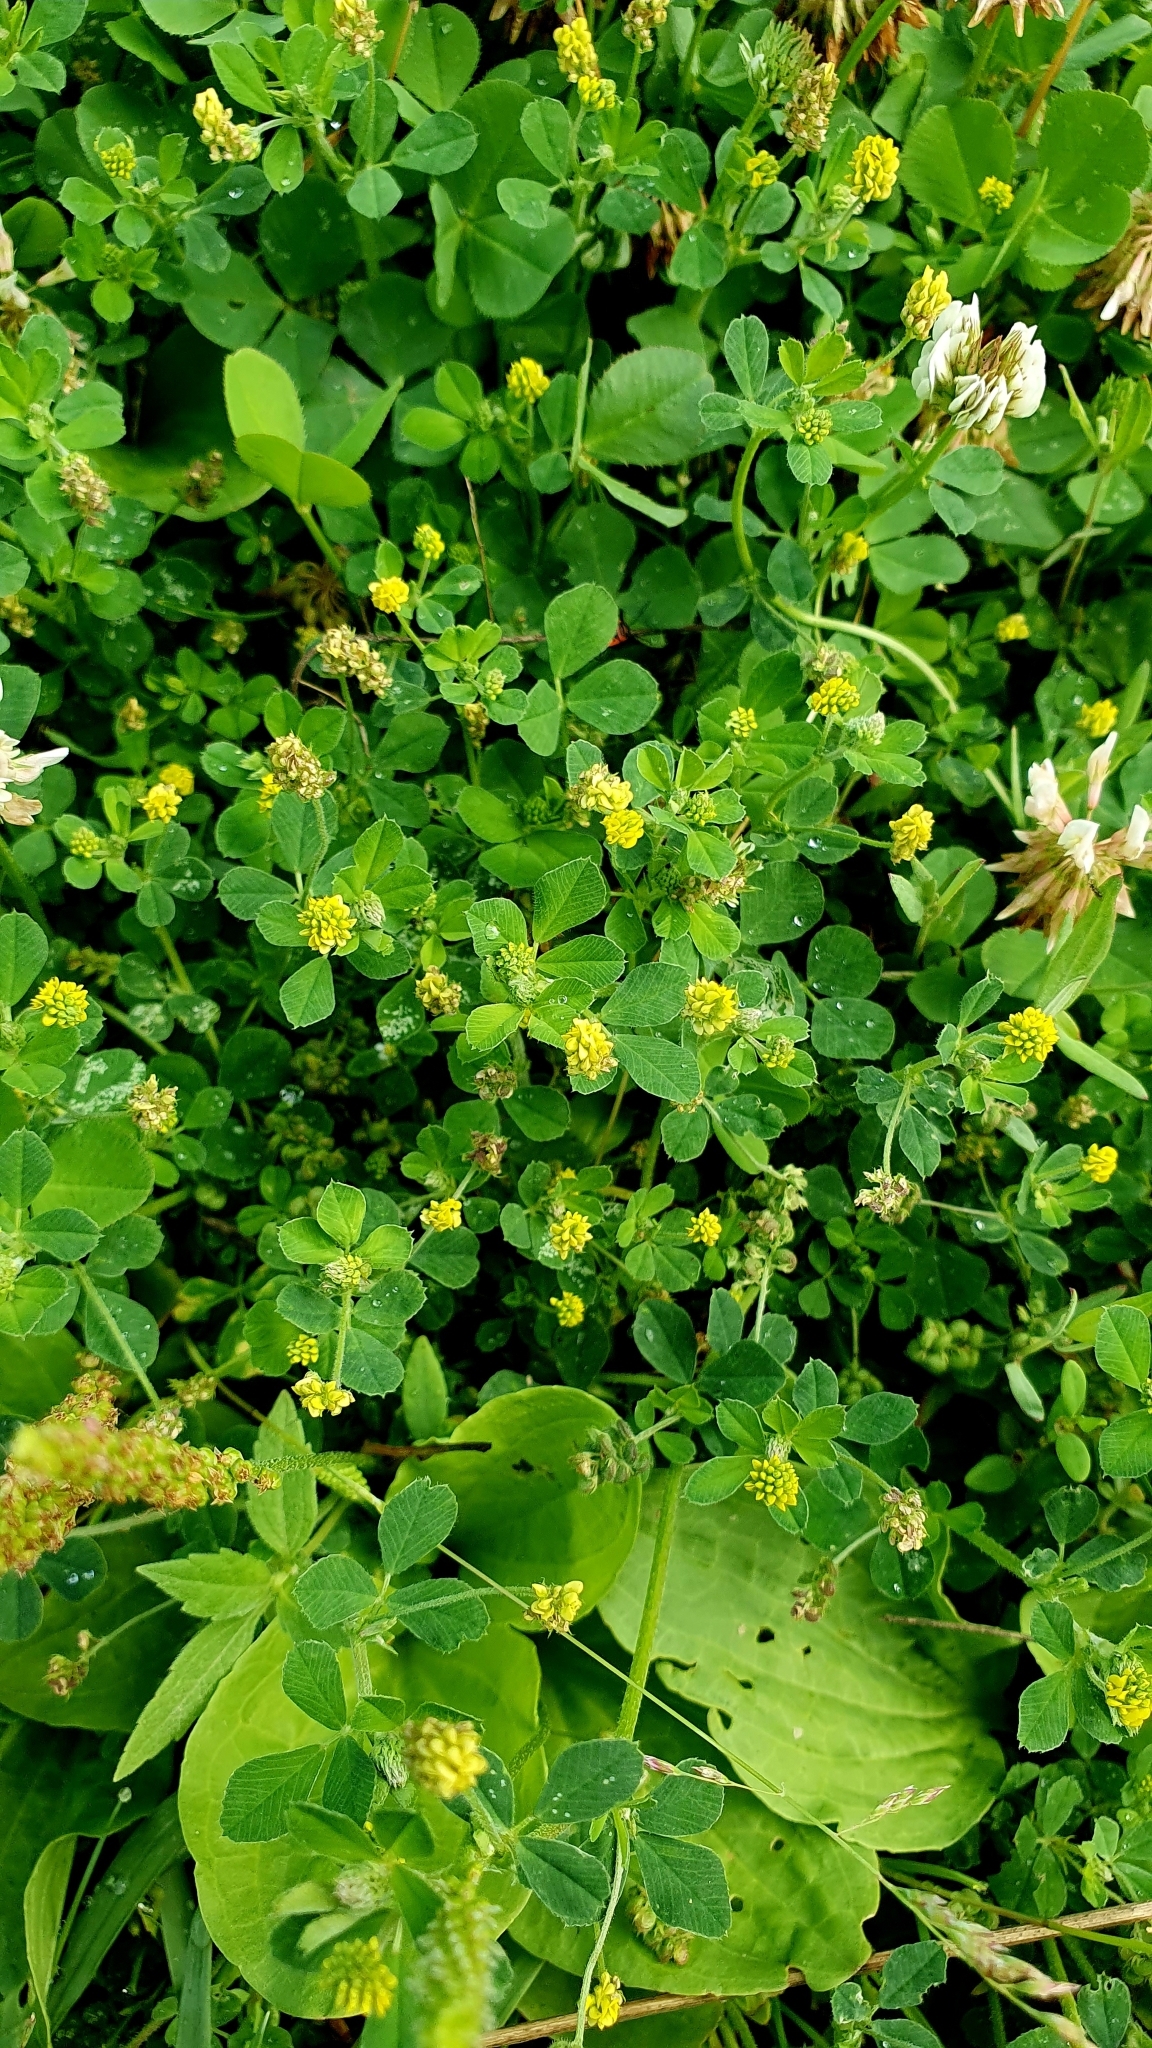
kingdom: Plantae
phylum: Tracheophyta
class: Magnoliopsida
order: Fabales
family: Fabaceae
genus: Medicago
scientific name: Medicago lupulina
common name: Black medick
